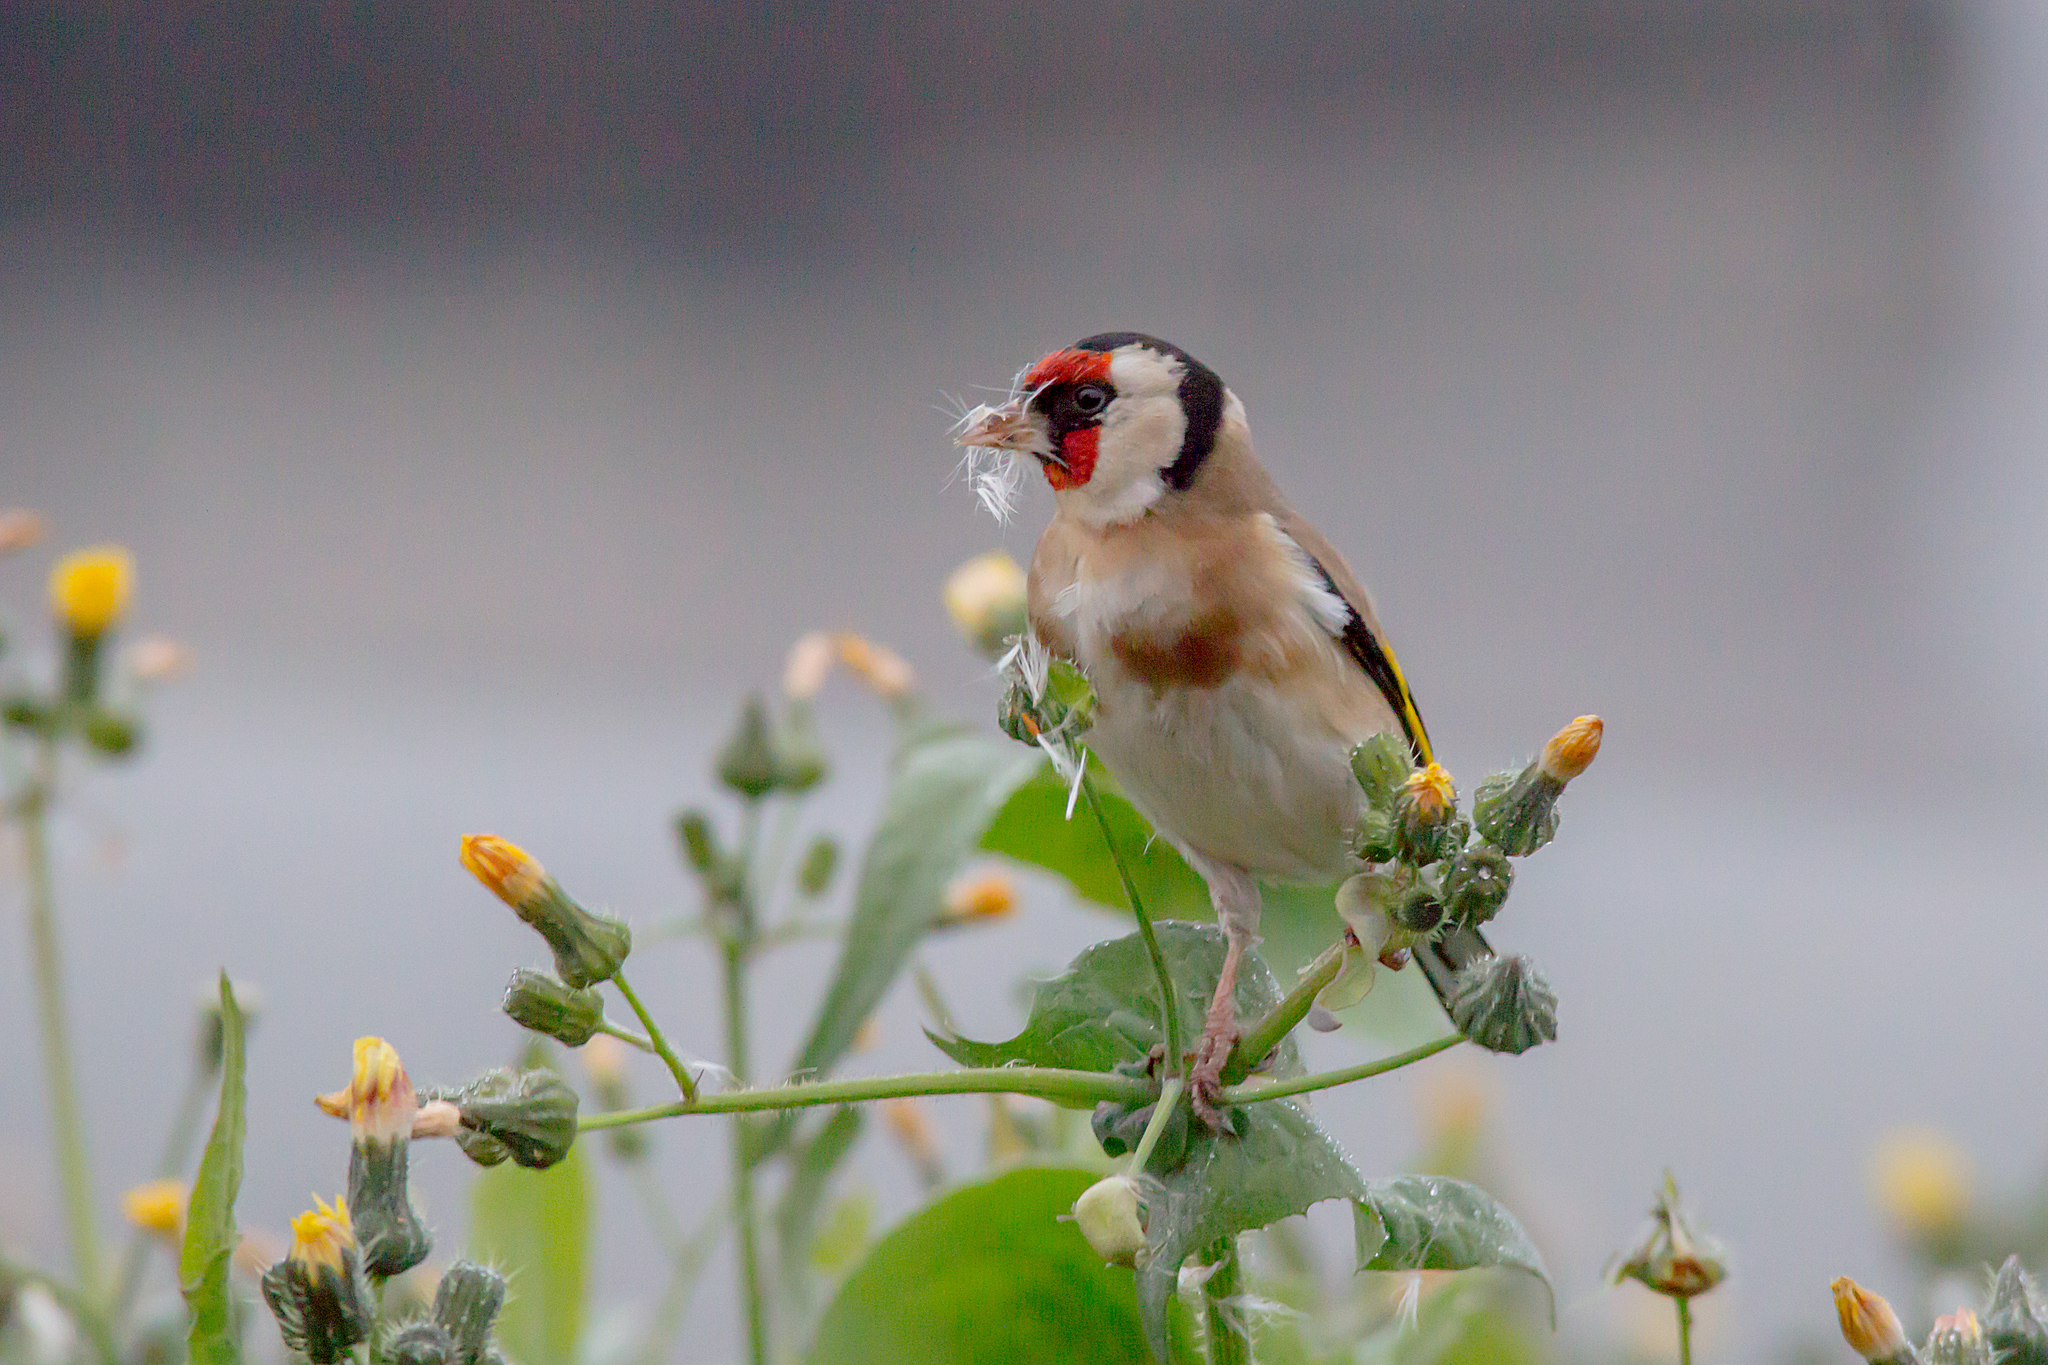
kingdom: Animalia
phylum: Chordata
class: Aves
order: Passeriformes
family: Fringillidae
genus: Carduelis
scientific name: Carduelis carduelis
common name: European goldfinch
